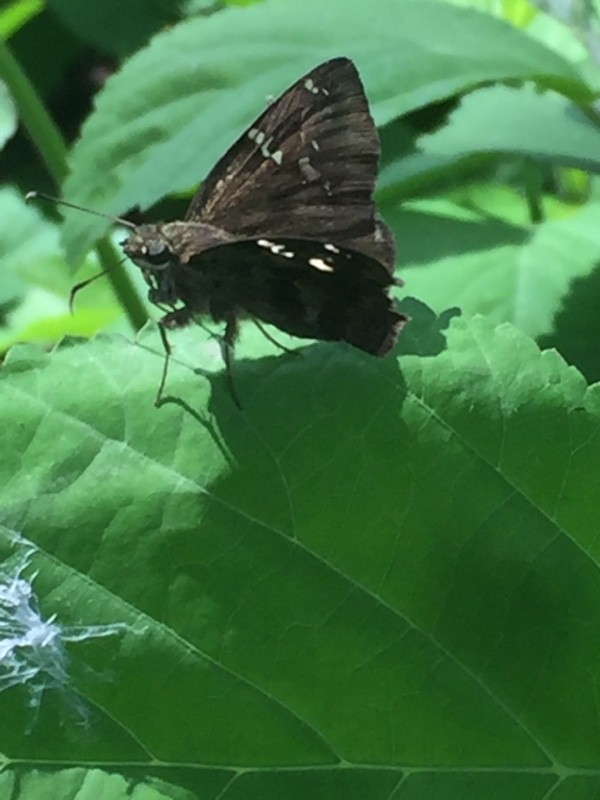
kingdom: Animalia
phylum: Arthropoda
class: Insecta
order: Lepidoptera
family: Hesperiidae
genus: Thorybes
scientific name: Thorybes
